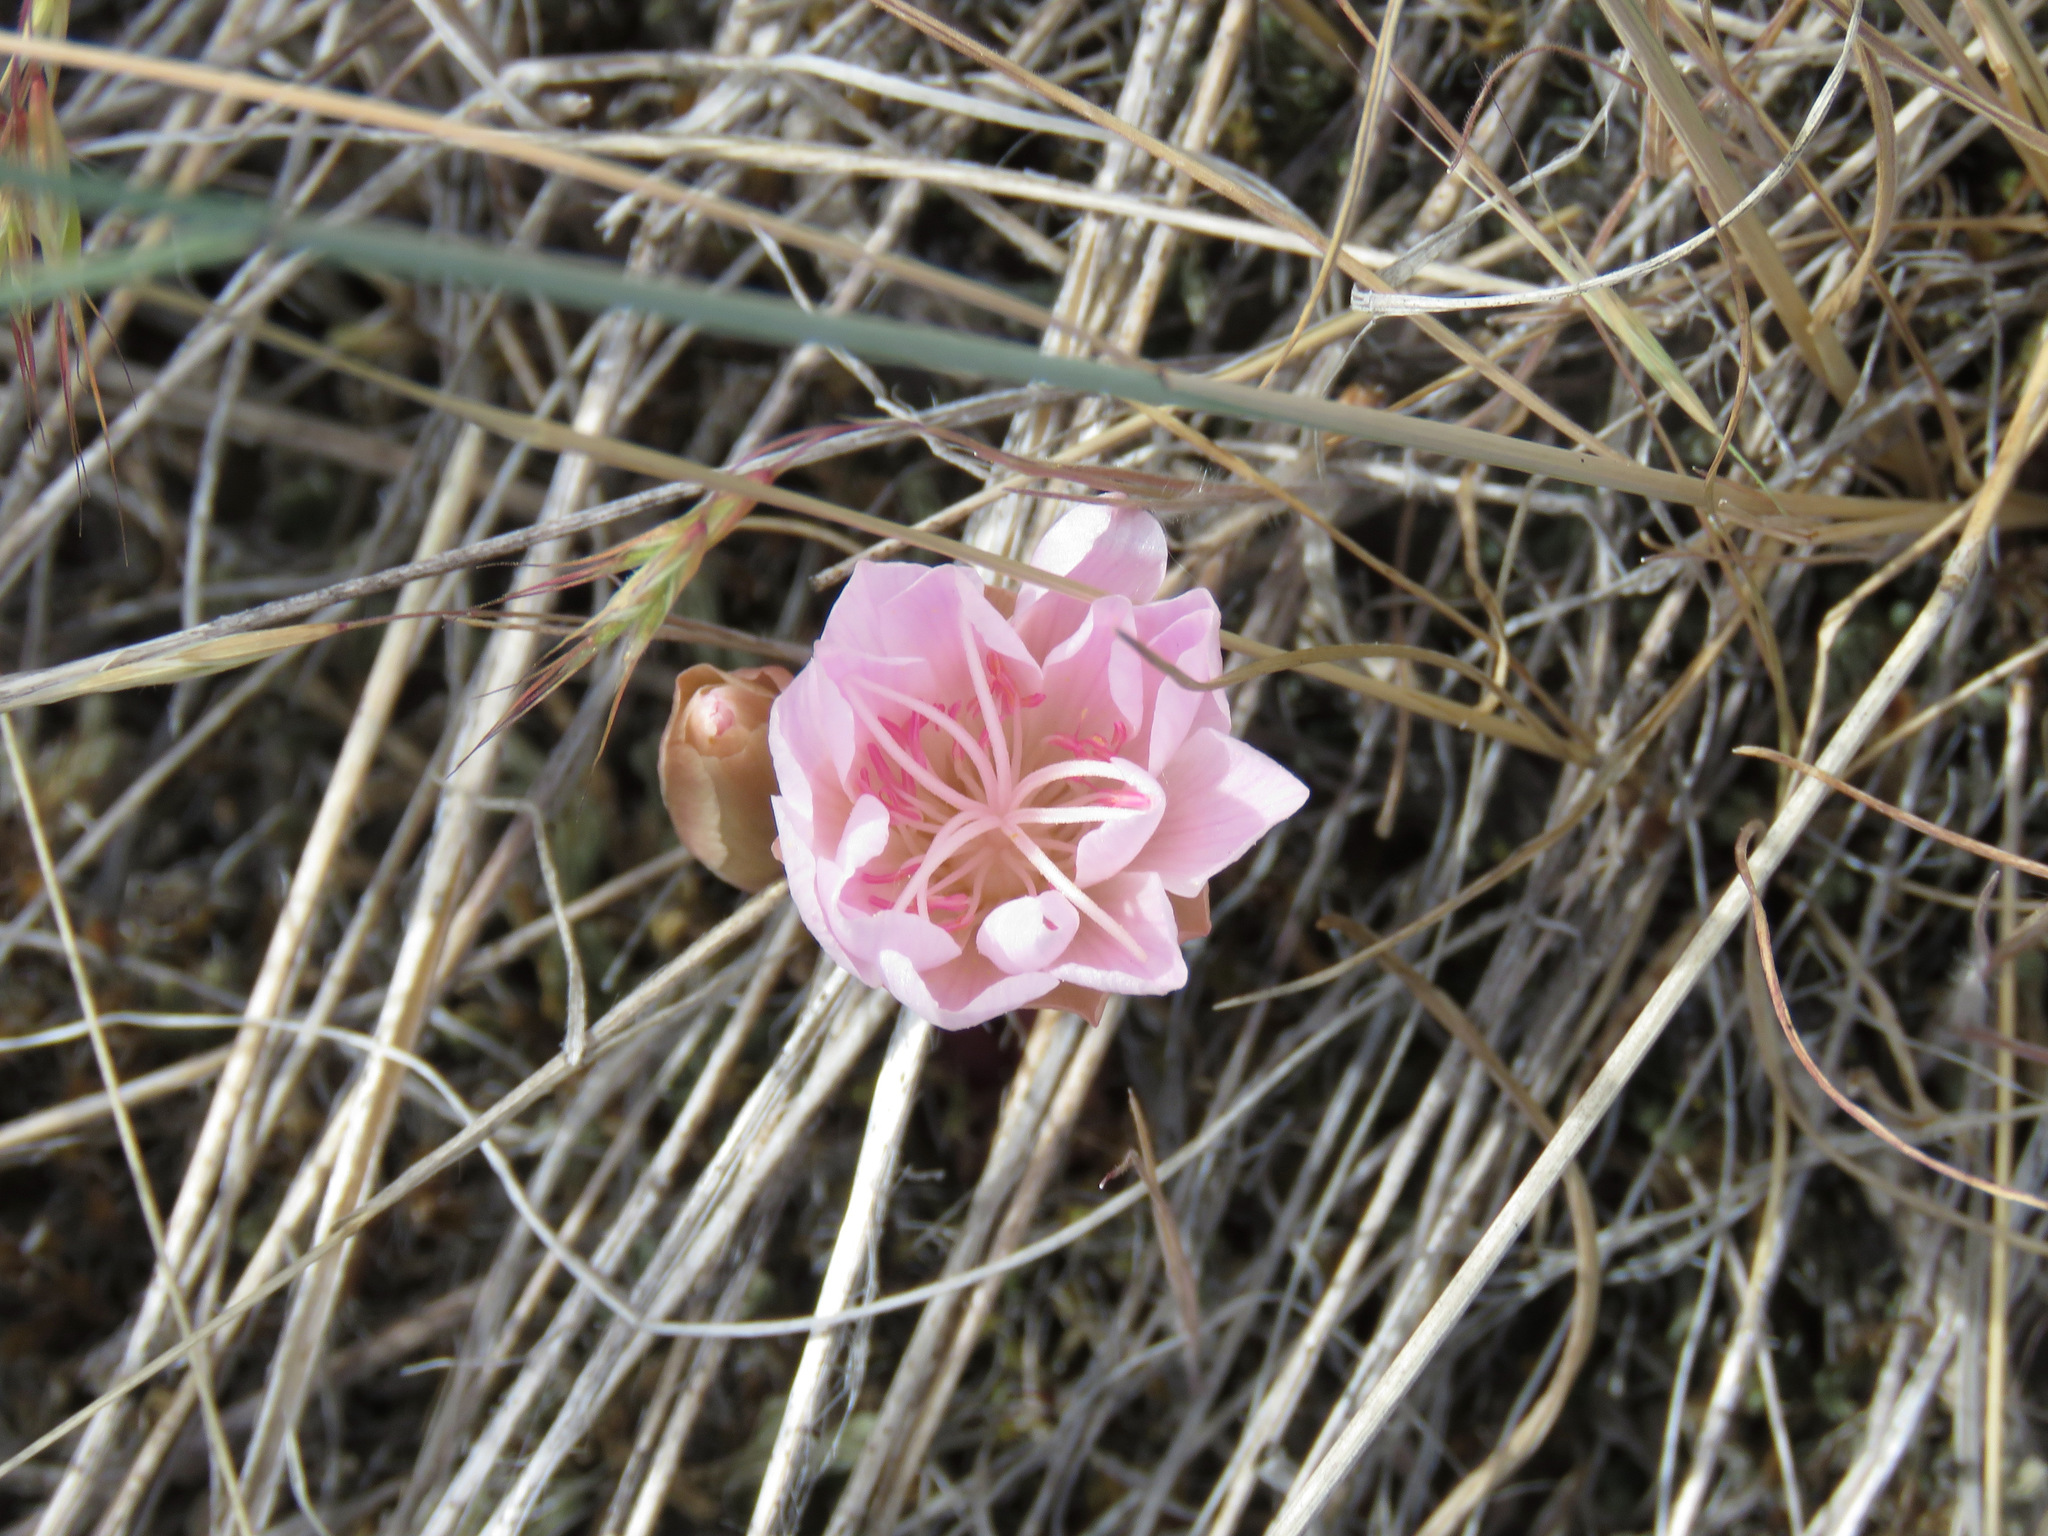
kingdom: Plantae
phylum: Tracheophyta
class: Magnoliopsida
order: Caryophyllales
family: Montiaceae
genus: Lewisia
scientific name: Lewisia rediviva
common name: Bitter-root
